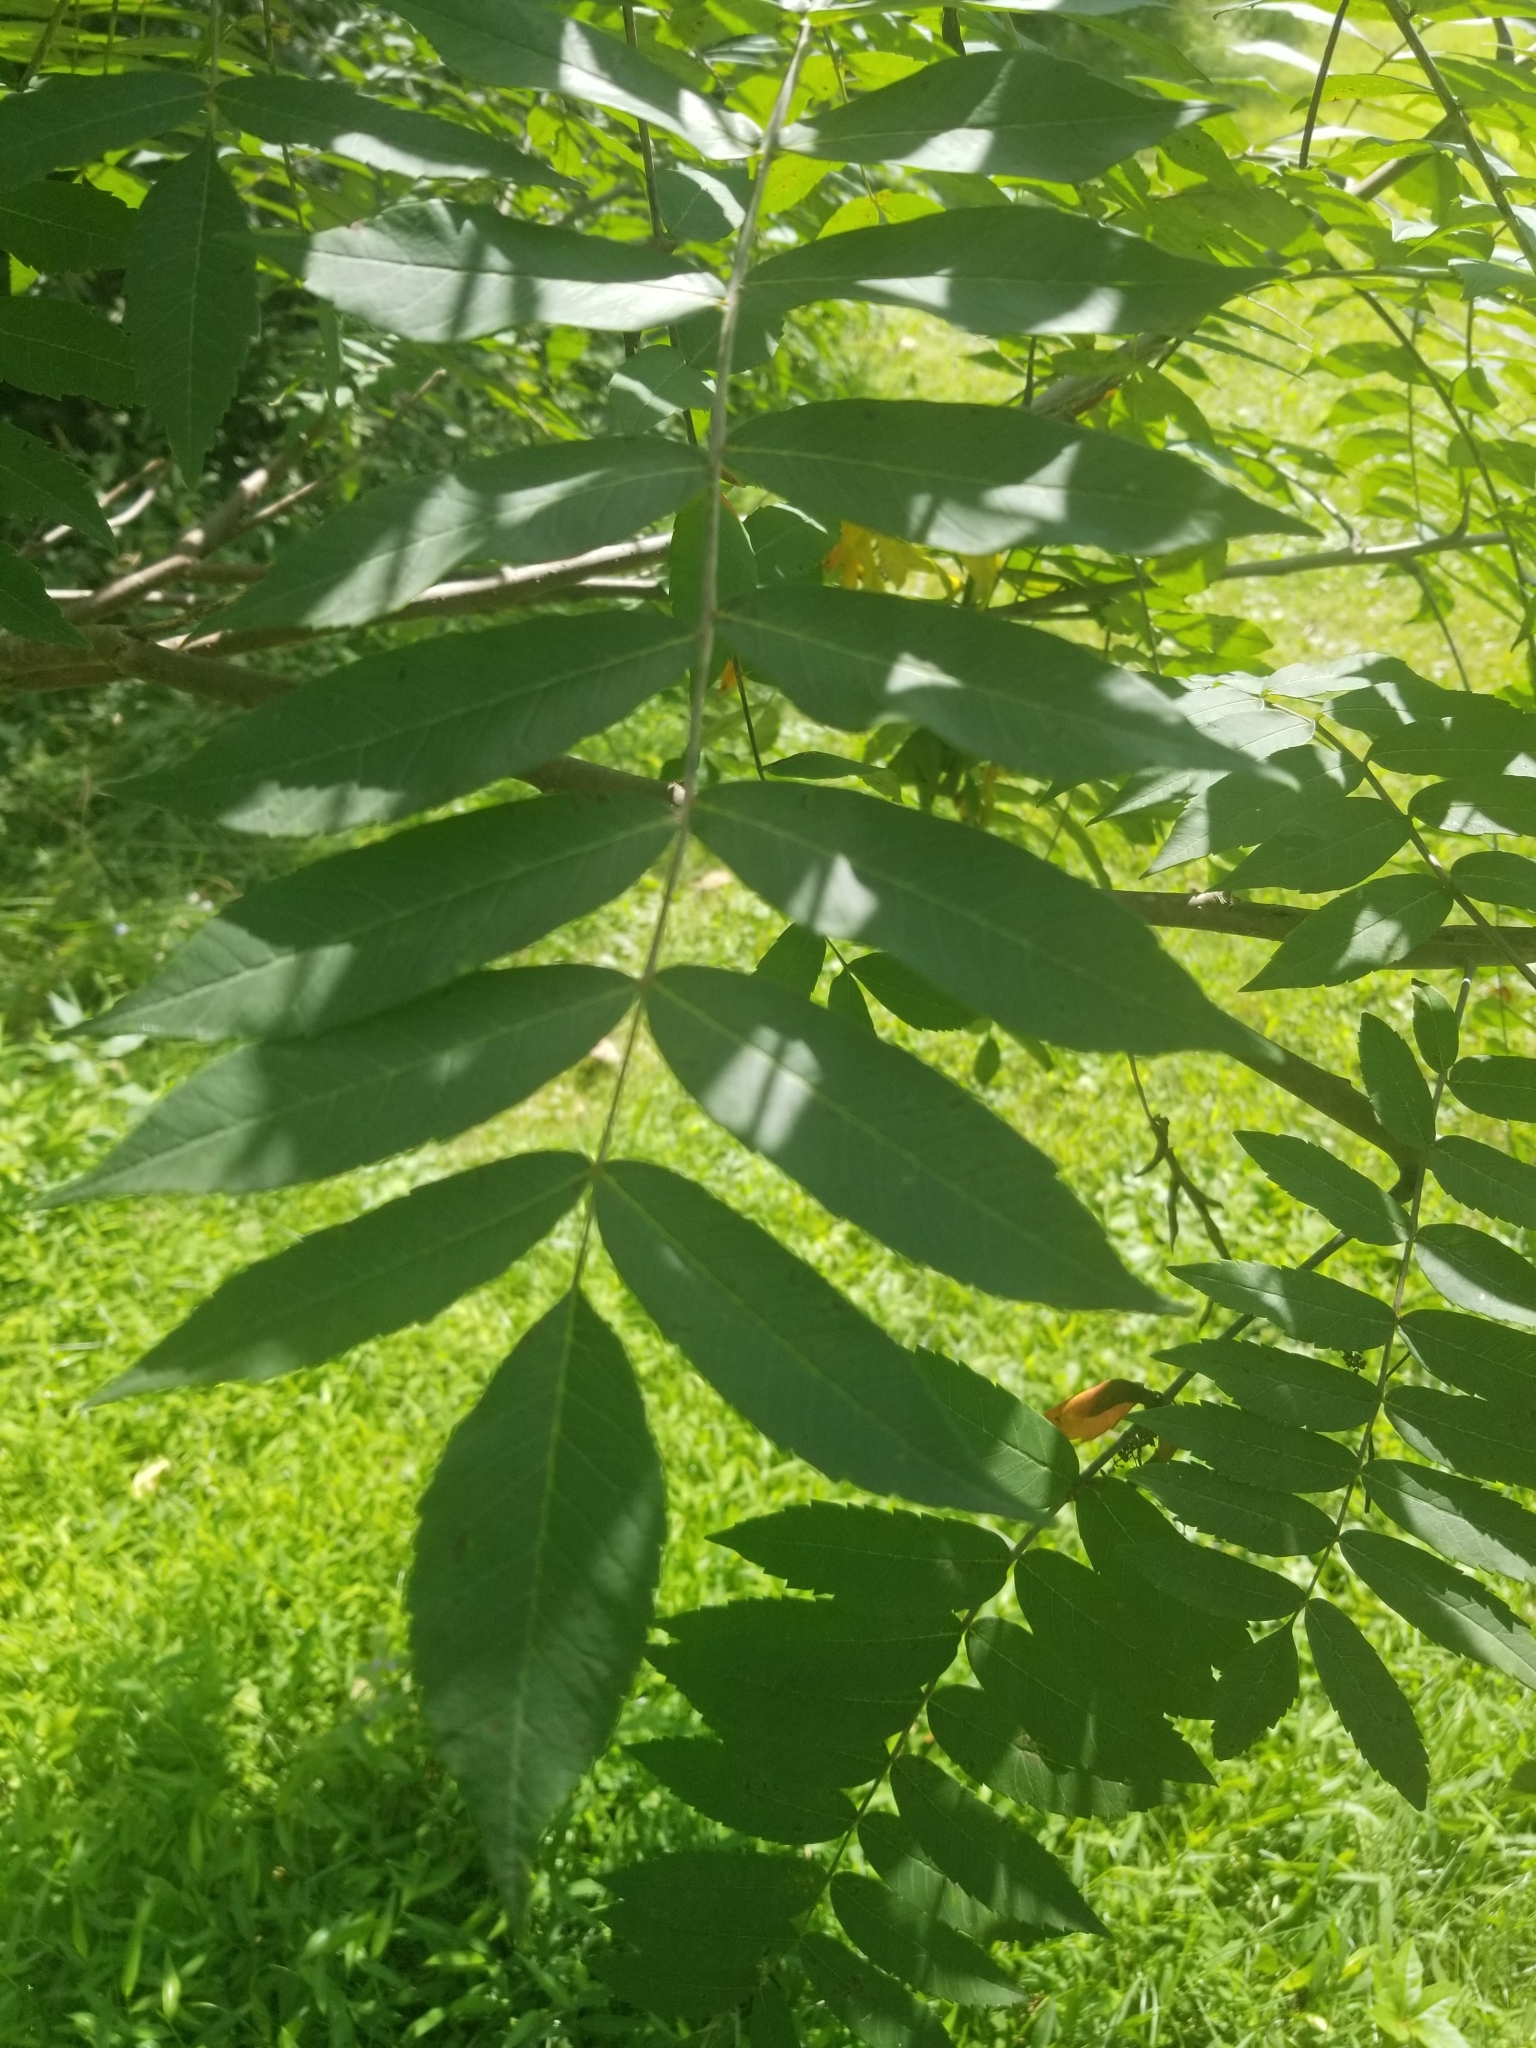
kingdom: Animalia
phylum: Arthropoda
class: Insecta
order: Hemiptera
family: Aphididae
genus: Melaphis
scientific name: Melaphis rhois
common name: Sumac gall aphid
